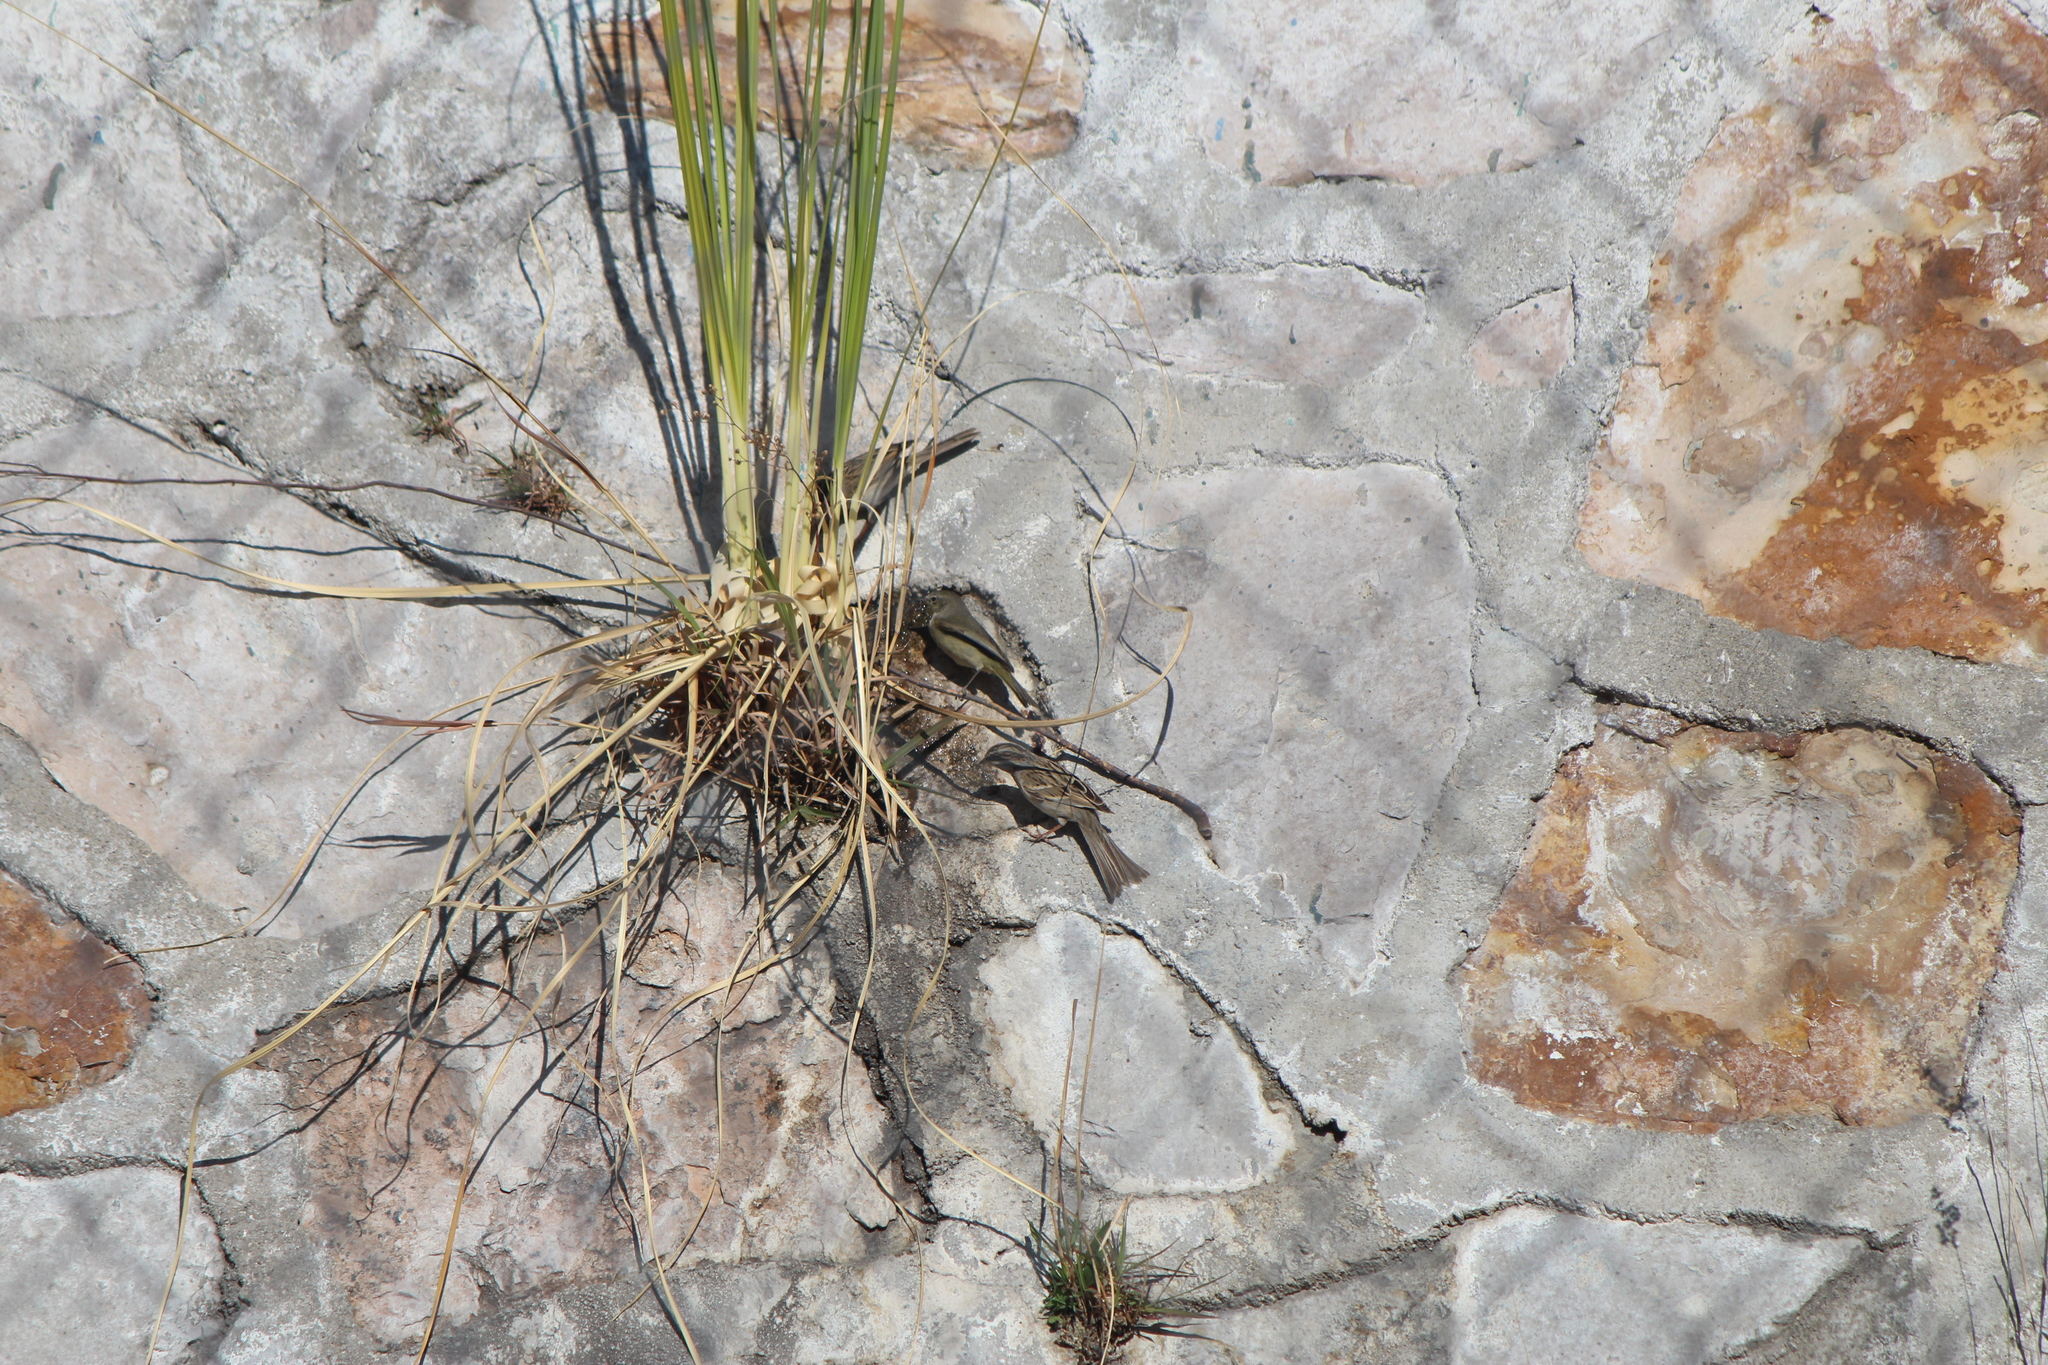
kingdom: Animalia
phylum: Chordata
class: Aves
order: Passeriformes
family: Passerellidae
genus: Melospiza
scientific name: Melospiza lincolnii
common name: Lincoln's sparrow
